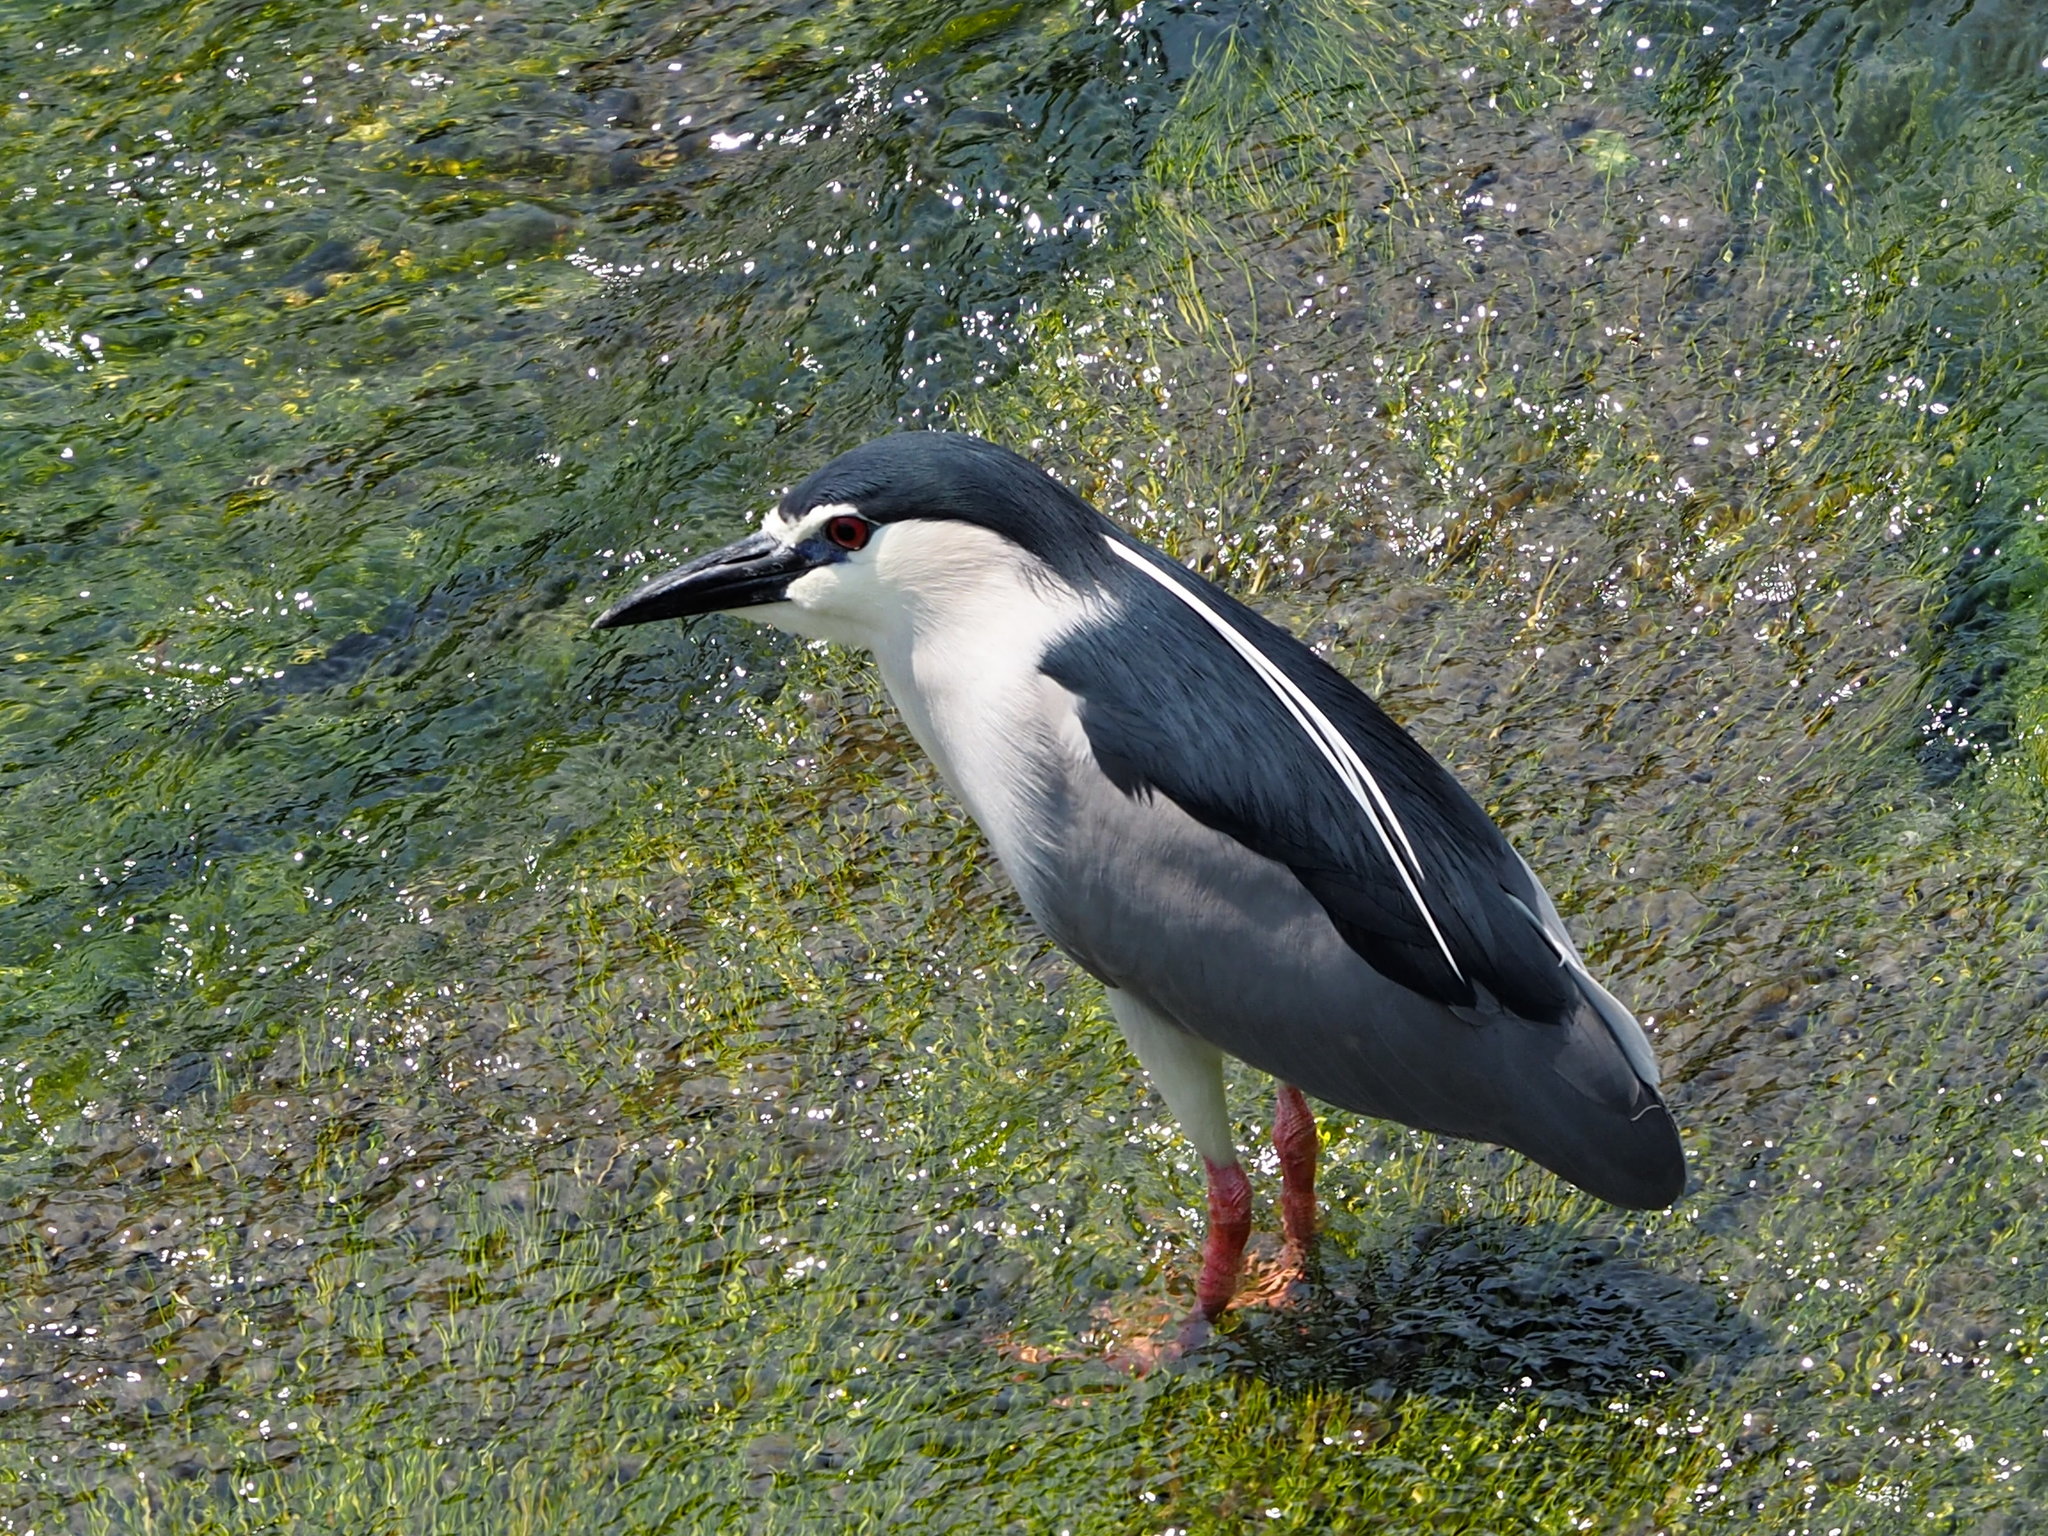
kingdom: Animalia
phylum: Chordata
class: Aves
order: Pelecaniformes
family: Ardeidae
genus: Nycticorax
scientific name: Nycticorax nycticorax
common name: Black-crowned night heron
